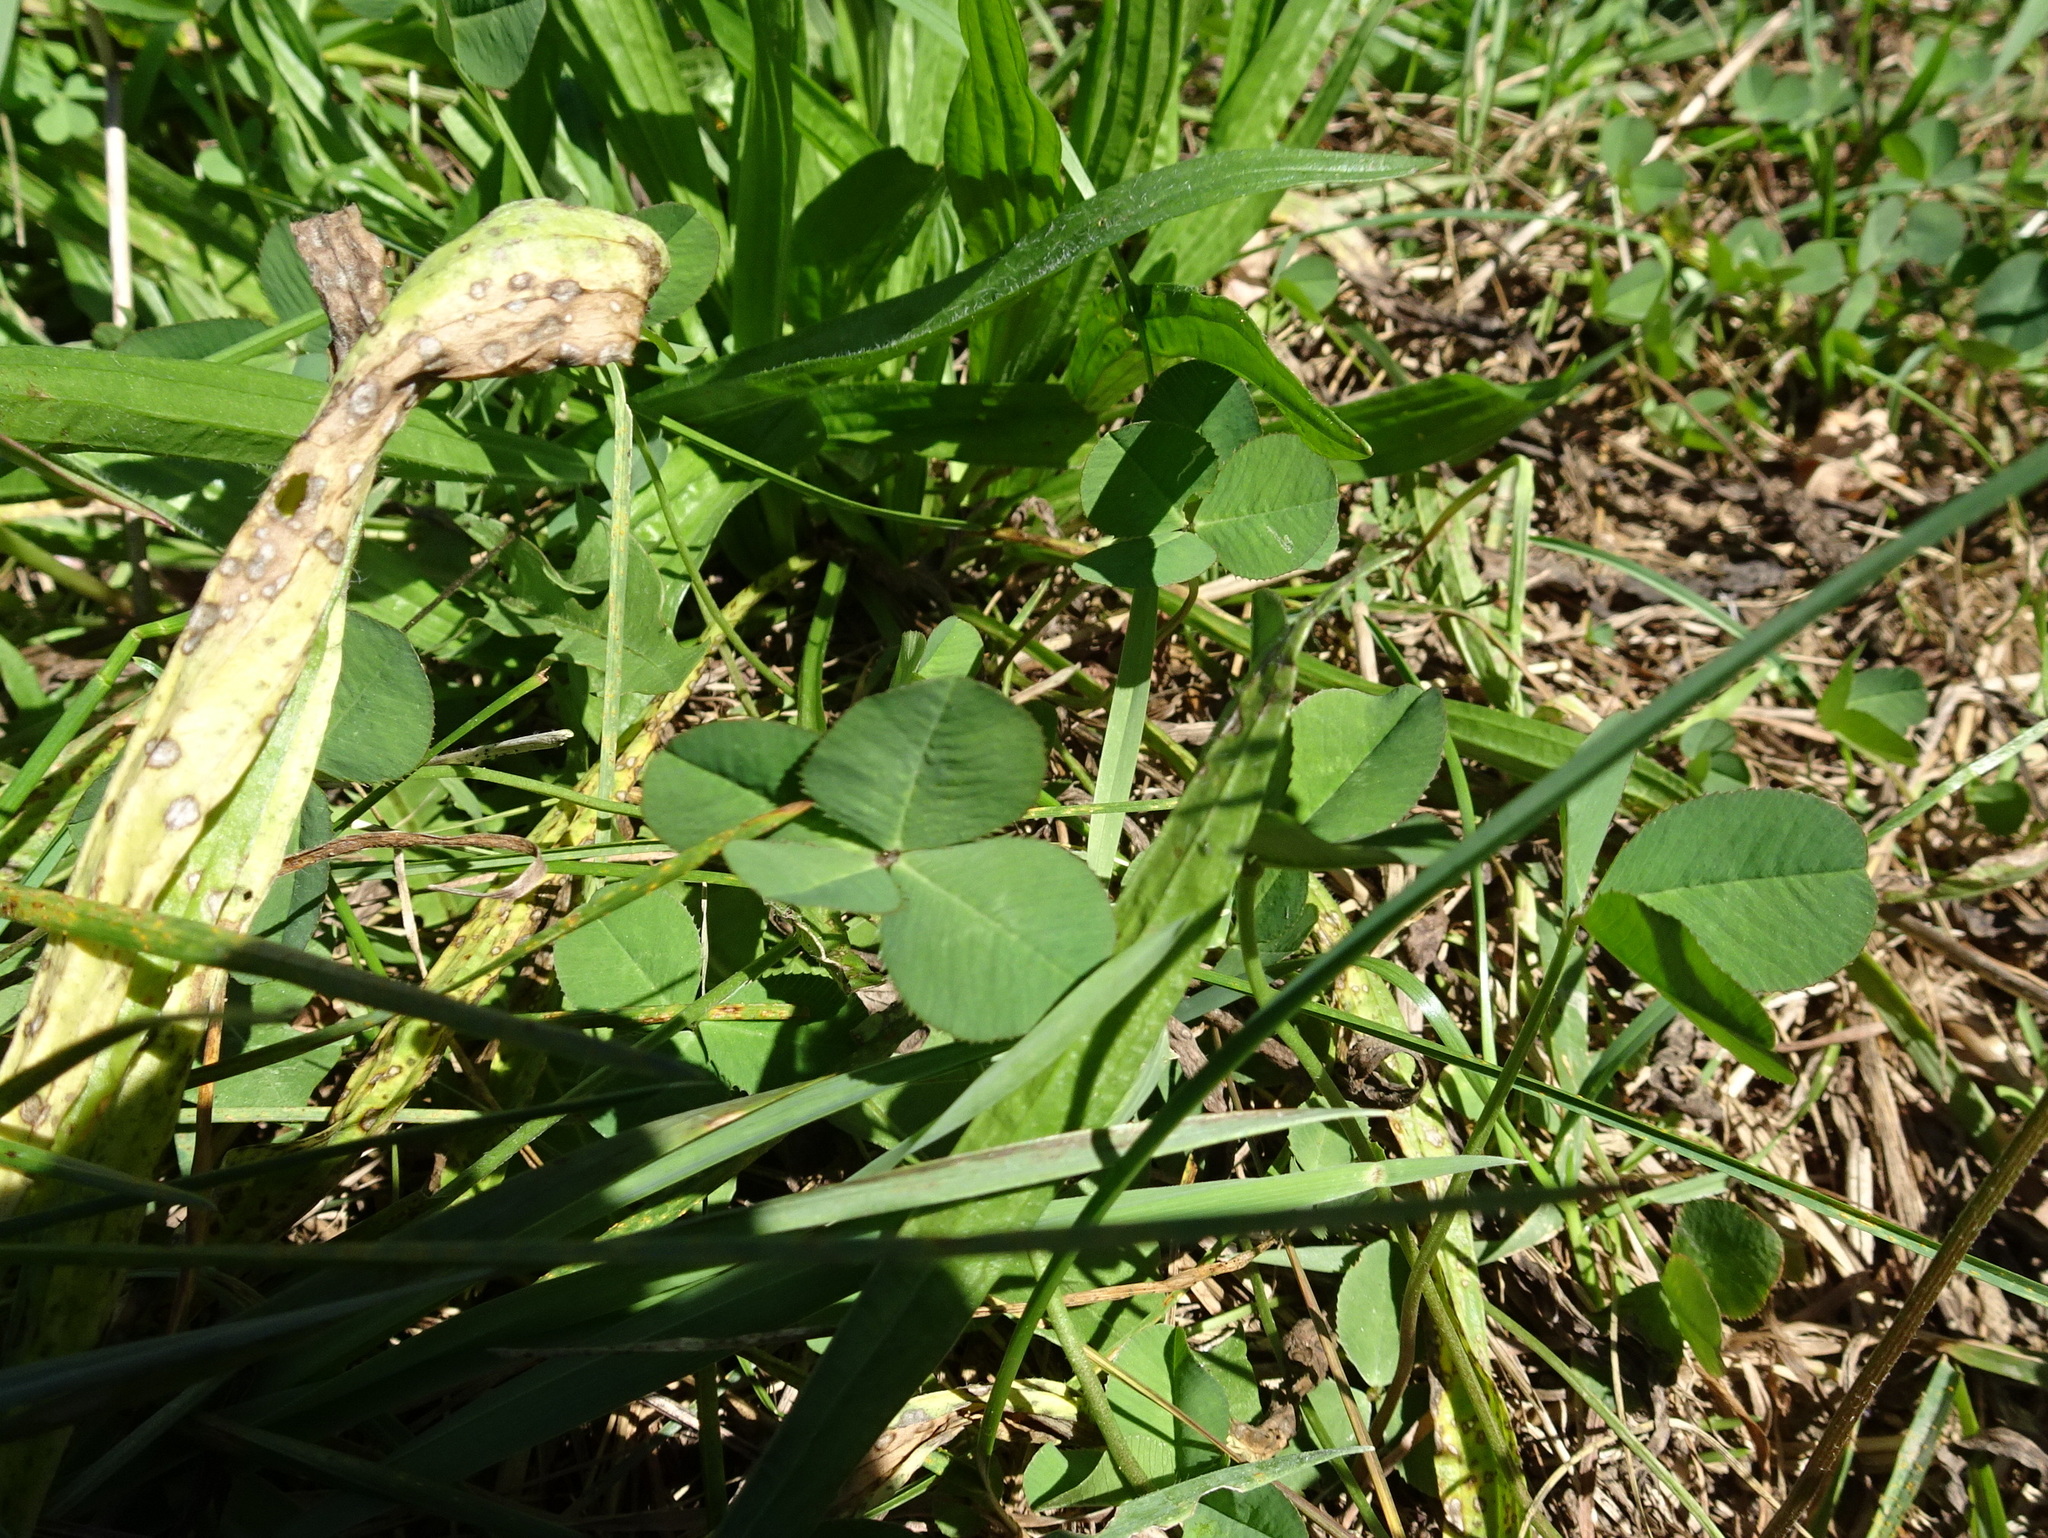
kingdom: Plantae
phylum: Tracheophyta
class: Magnoliopsida
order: Fabales
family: Fabaceae
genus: Trifolium
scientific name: Trifolium repens
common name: White clover
